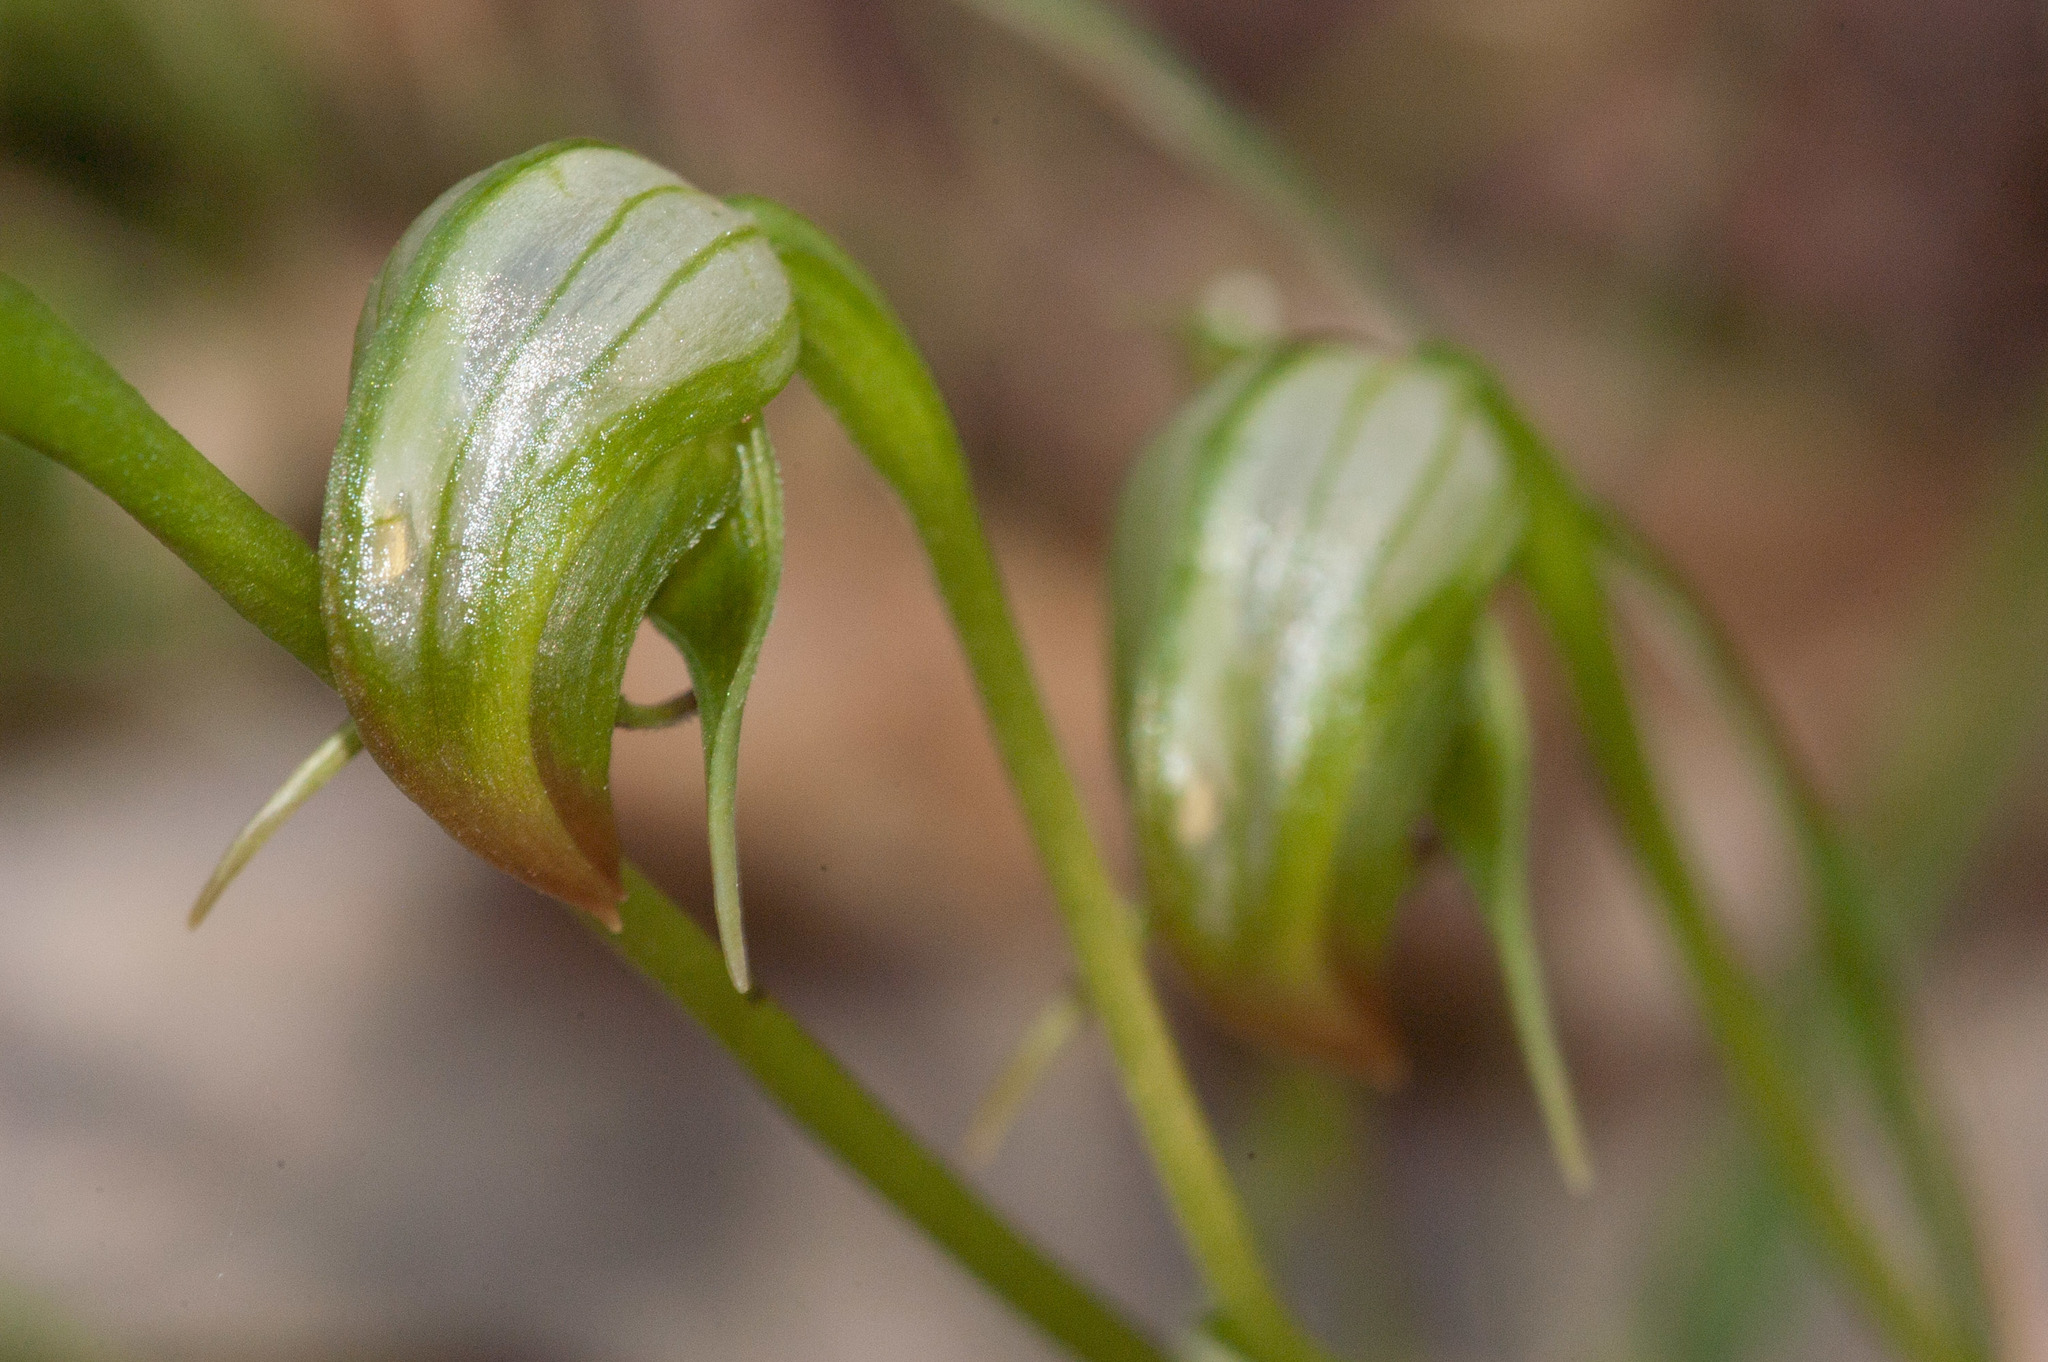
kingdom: Plantae
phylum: Tracheophyta
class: Liliopsida
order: Asparagales
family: Orchidaceae
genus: Pterostylis
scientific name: Pterostylis nutans
